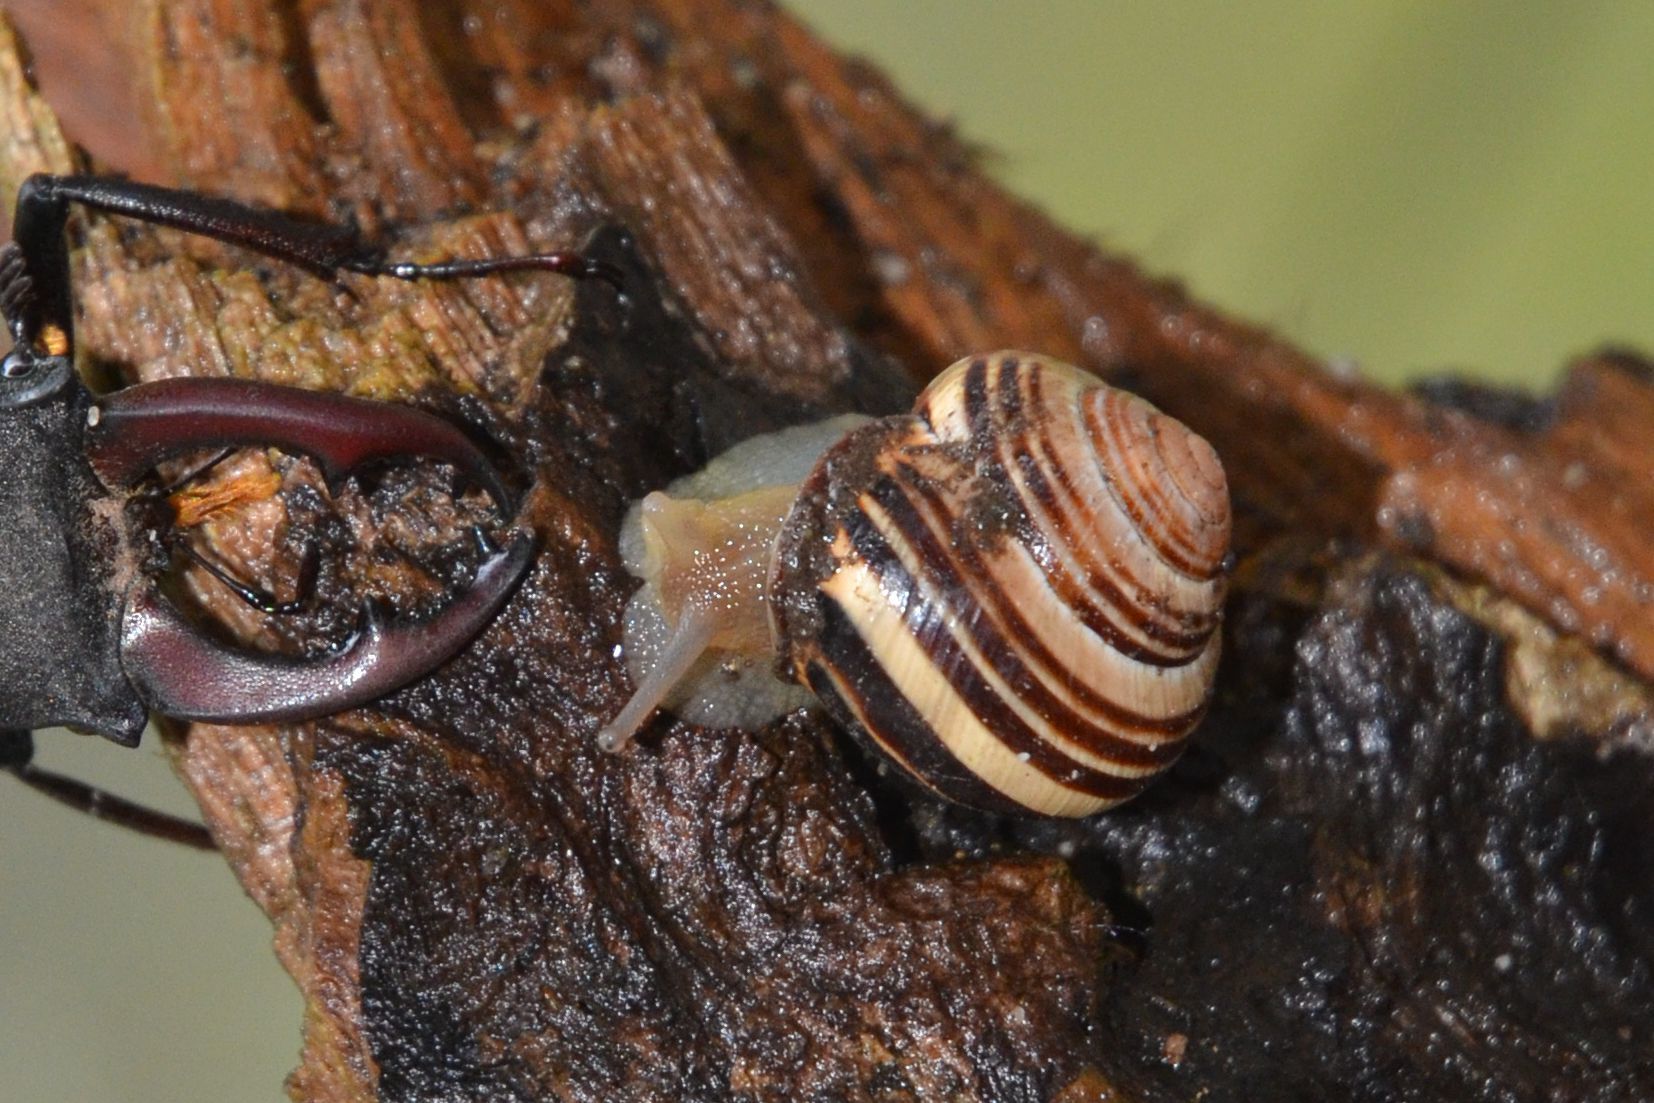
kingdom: Animalia
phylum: Mollusca
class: Gastropoda
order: Stylommatophora
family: Helicidae
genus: Cepaea
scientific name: Cepaea nemoralis
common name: Grovesnail
